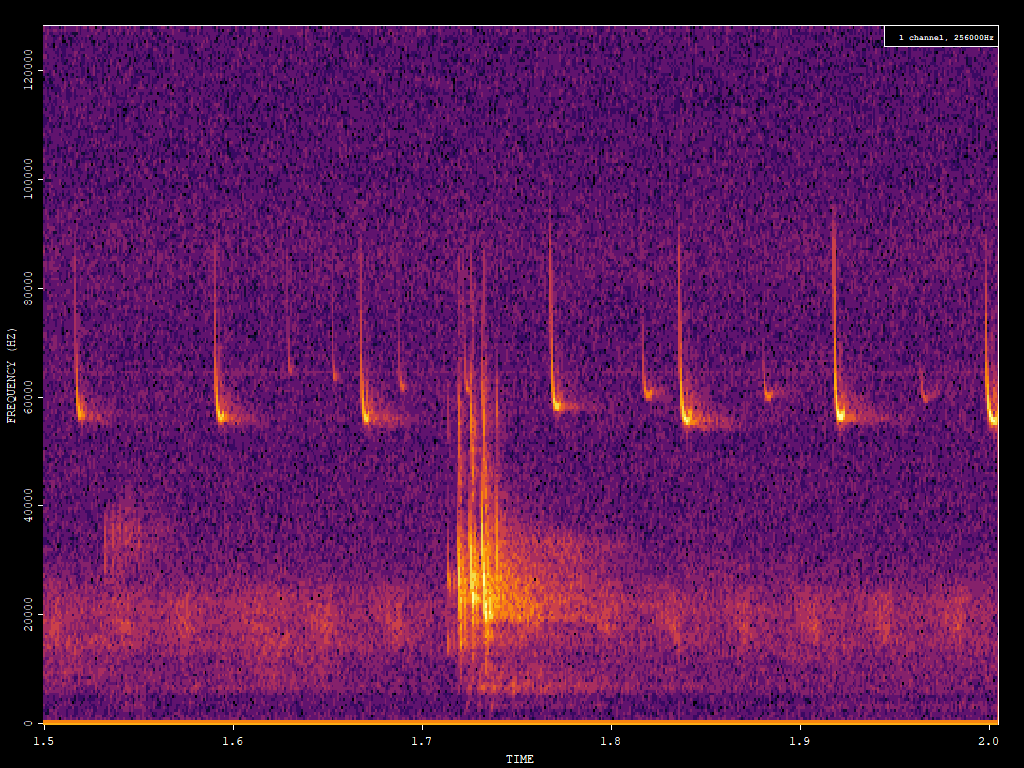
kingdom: Animalia
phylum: Chordata
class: Mammalia
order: Chiroptera
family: Vespertilionidae
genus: Pipistrellus
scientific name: Pipistrellus pygmaeus
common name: Soprano pipistrelle
